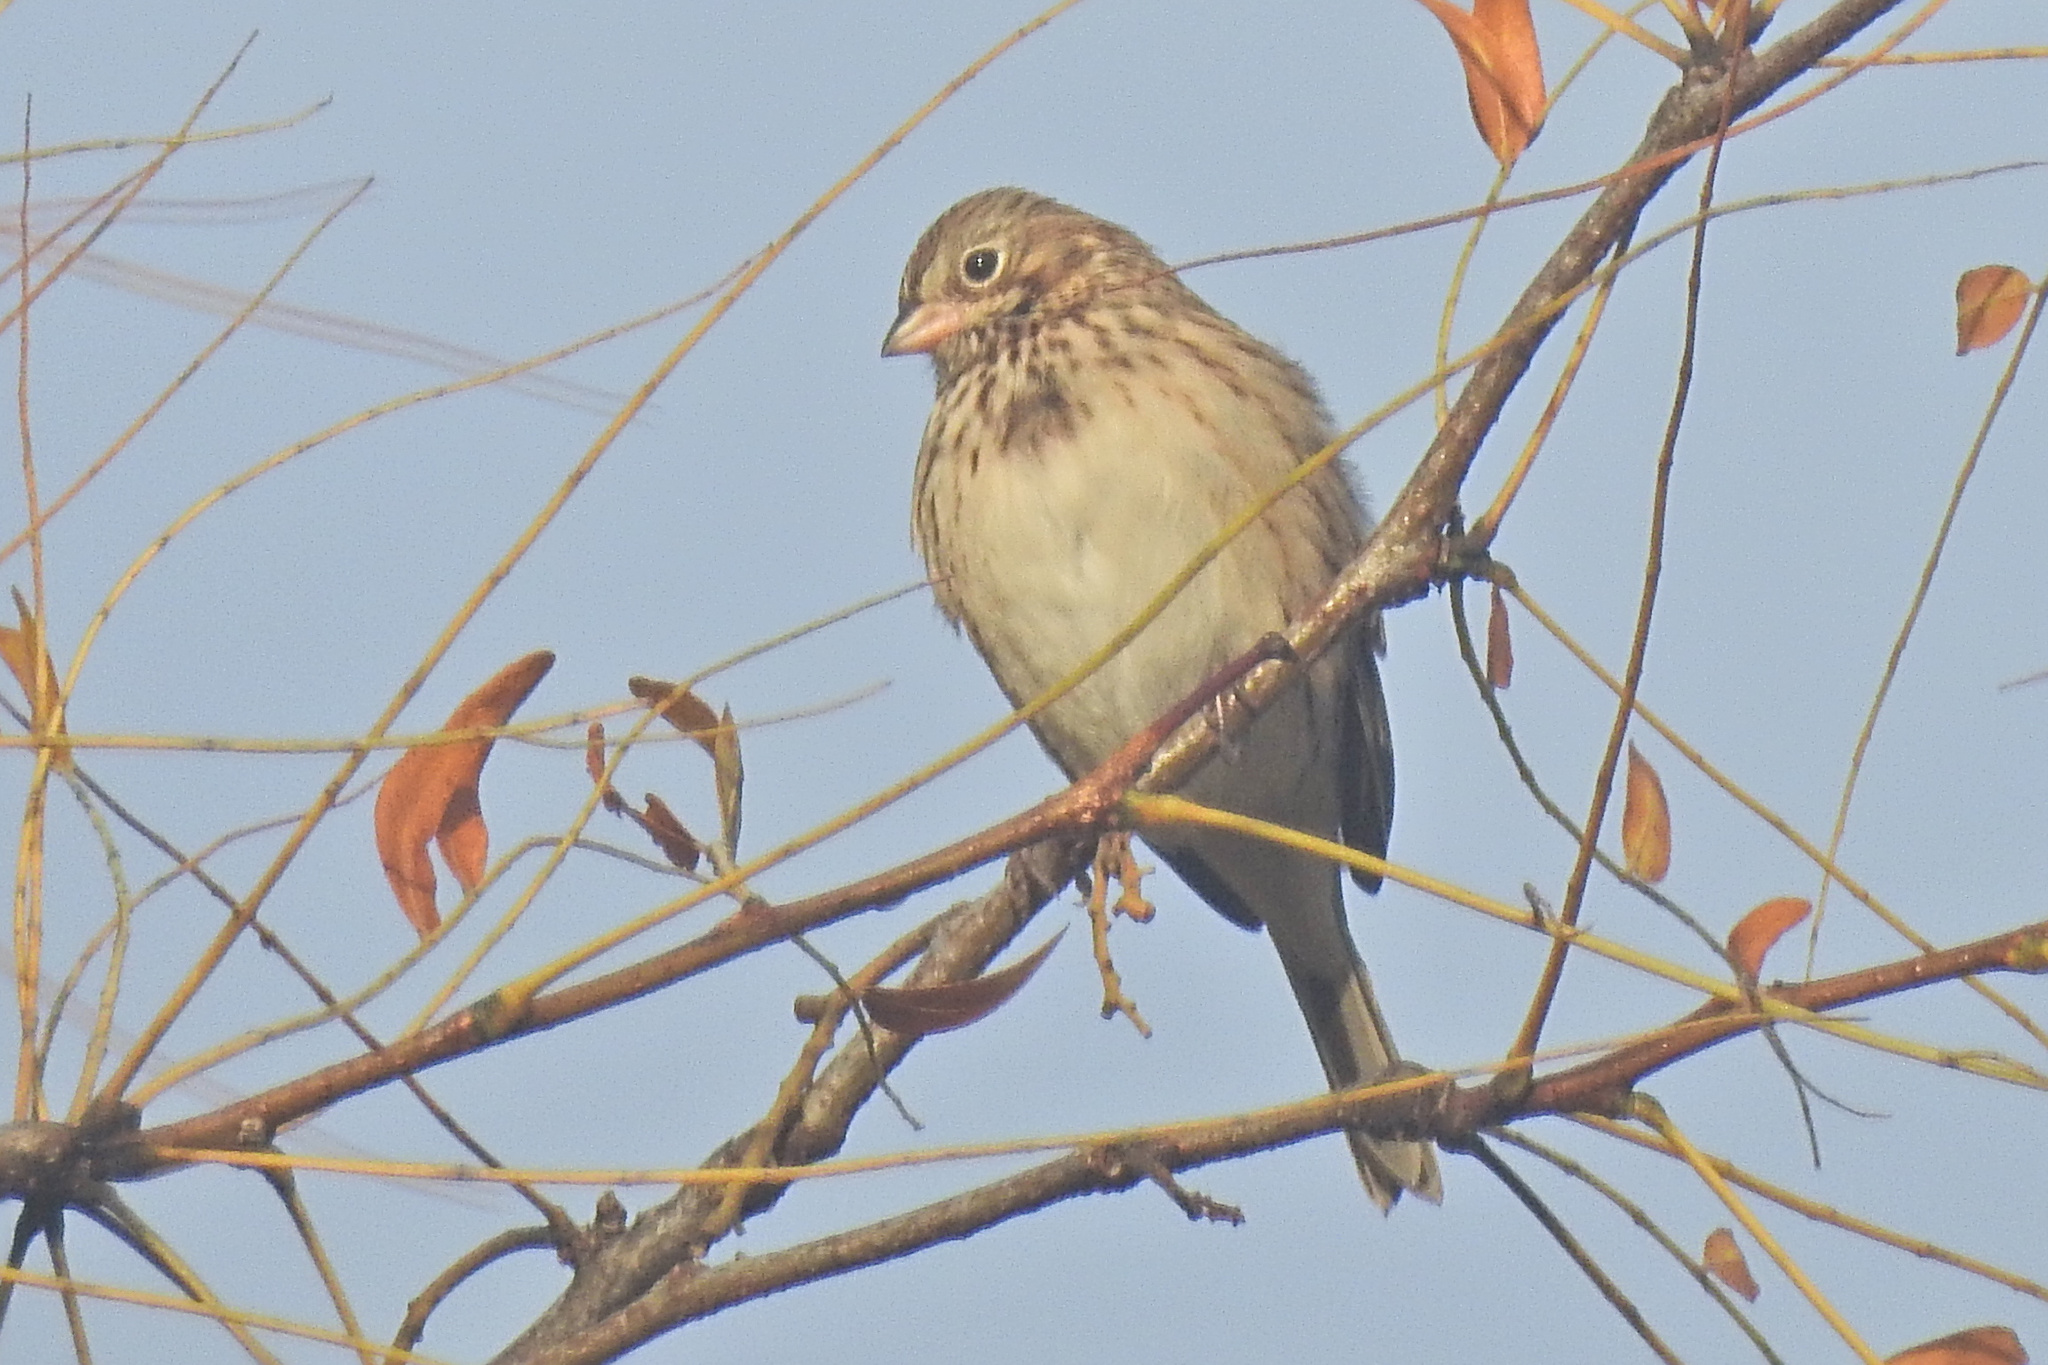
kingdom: Animalia
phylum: Chordata
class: Aves
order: Passeriformes
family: Passerellidae
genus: Pooecetes
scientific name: Pooecetes gramineus
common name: Vesper sparrow
